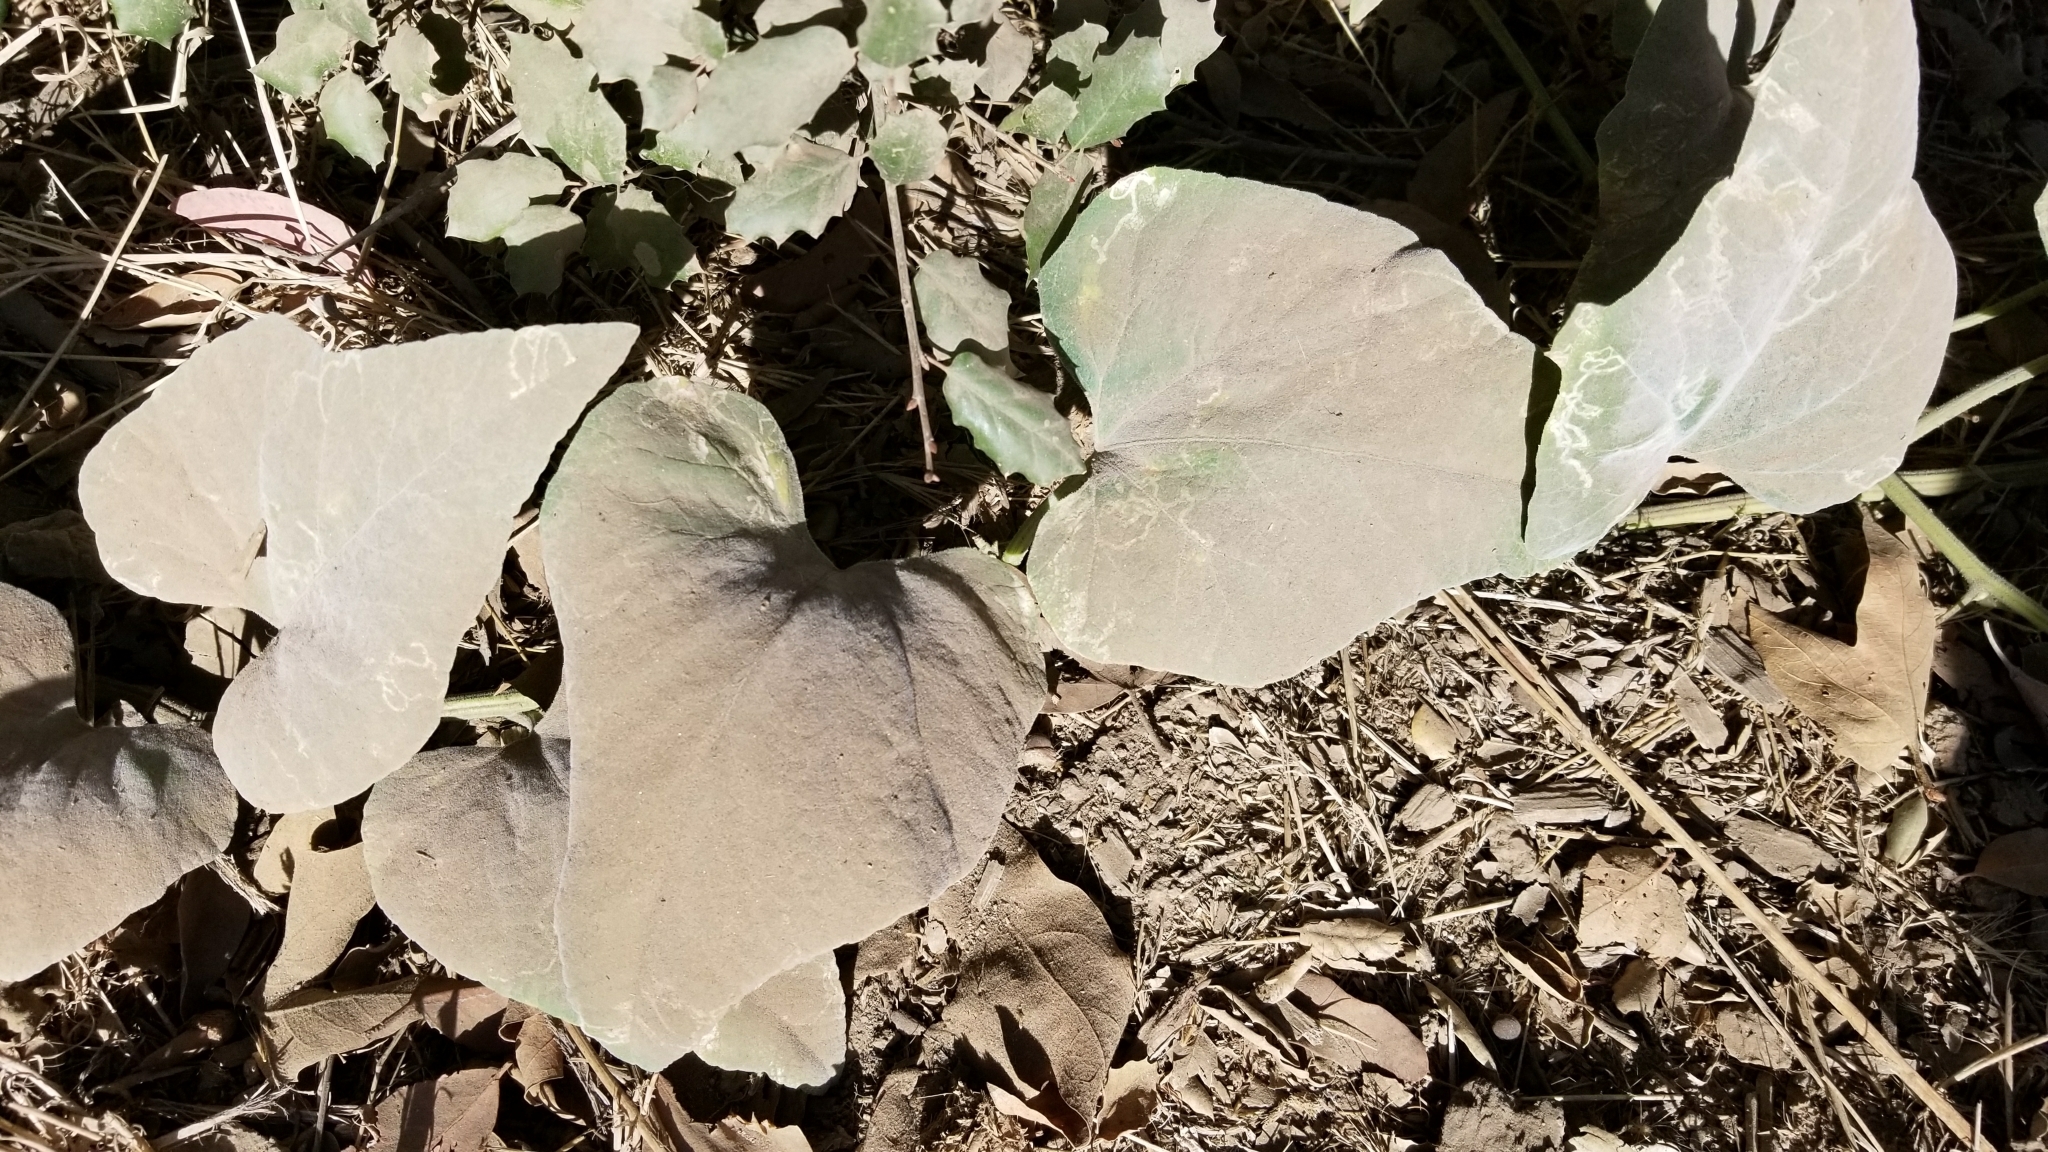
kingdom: Plantae
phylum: Tracheophyta
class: Magnoliopsida
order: Cucurbitales
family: Cucurbitaceae
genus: Cucurbita
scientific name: Cucurbita foetidissima
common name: Buffalo gourd
